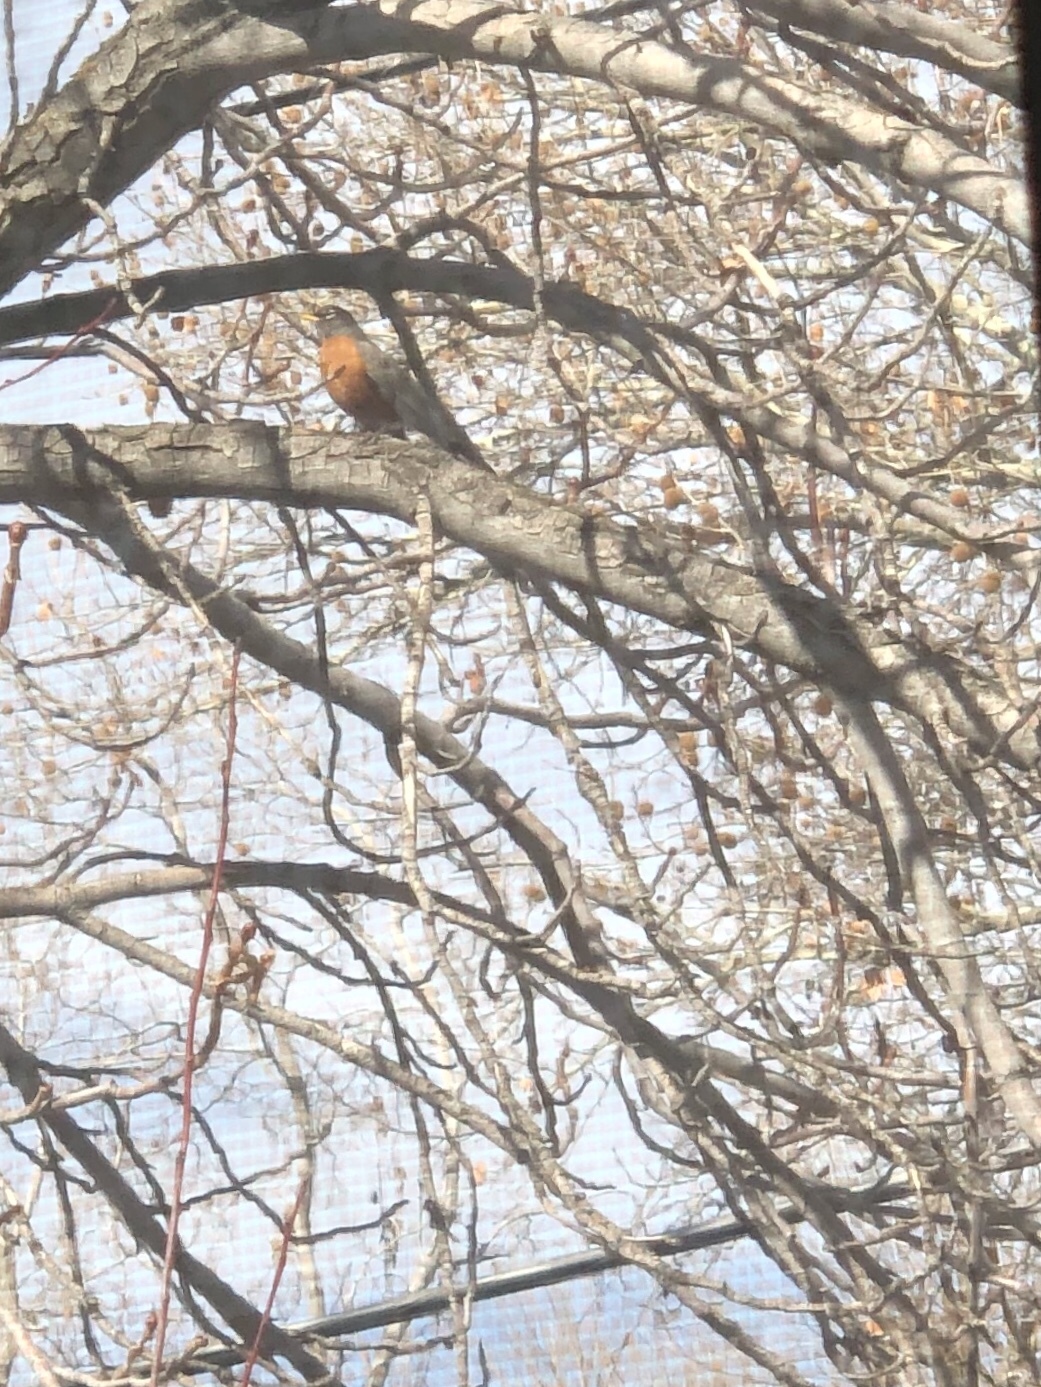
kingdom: Animalia
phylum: Chordata
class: Aves
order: Passeriformes
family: Turdidae
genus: Turdus
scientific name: Turdus migratorius
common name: American robin
